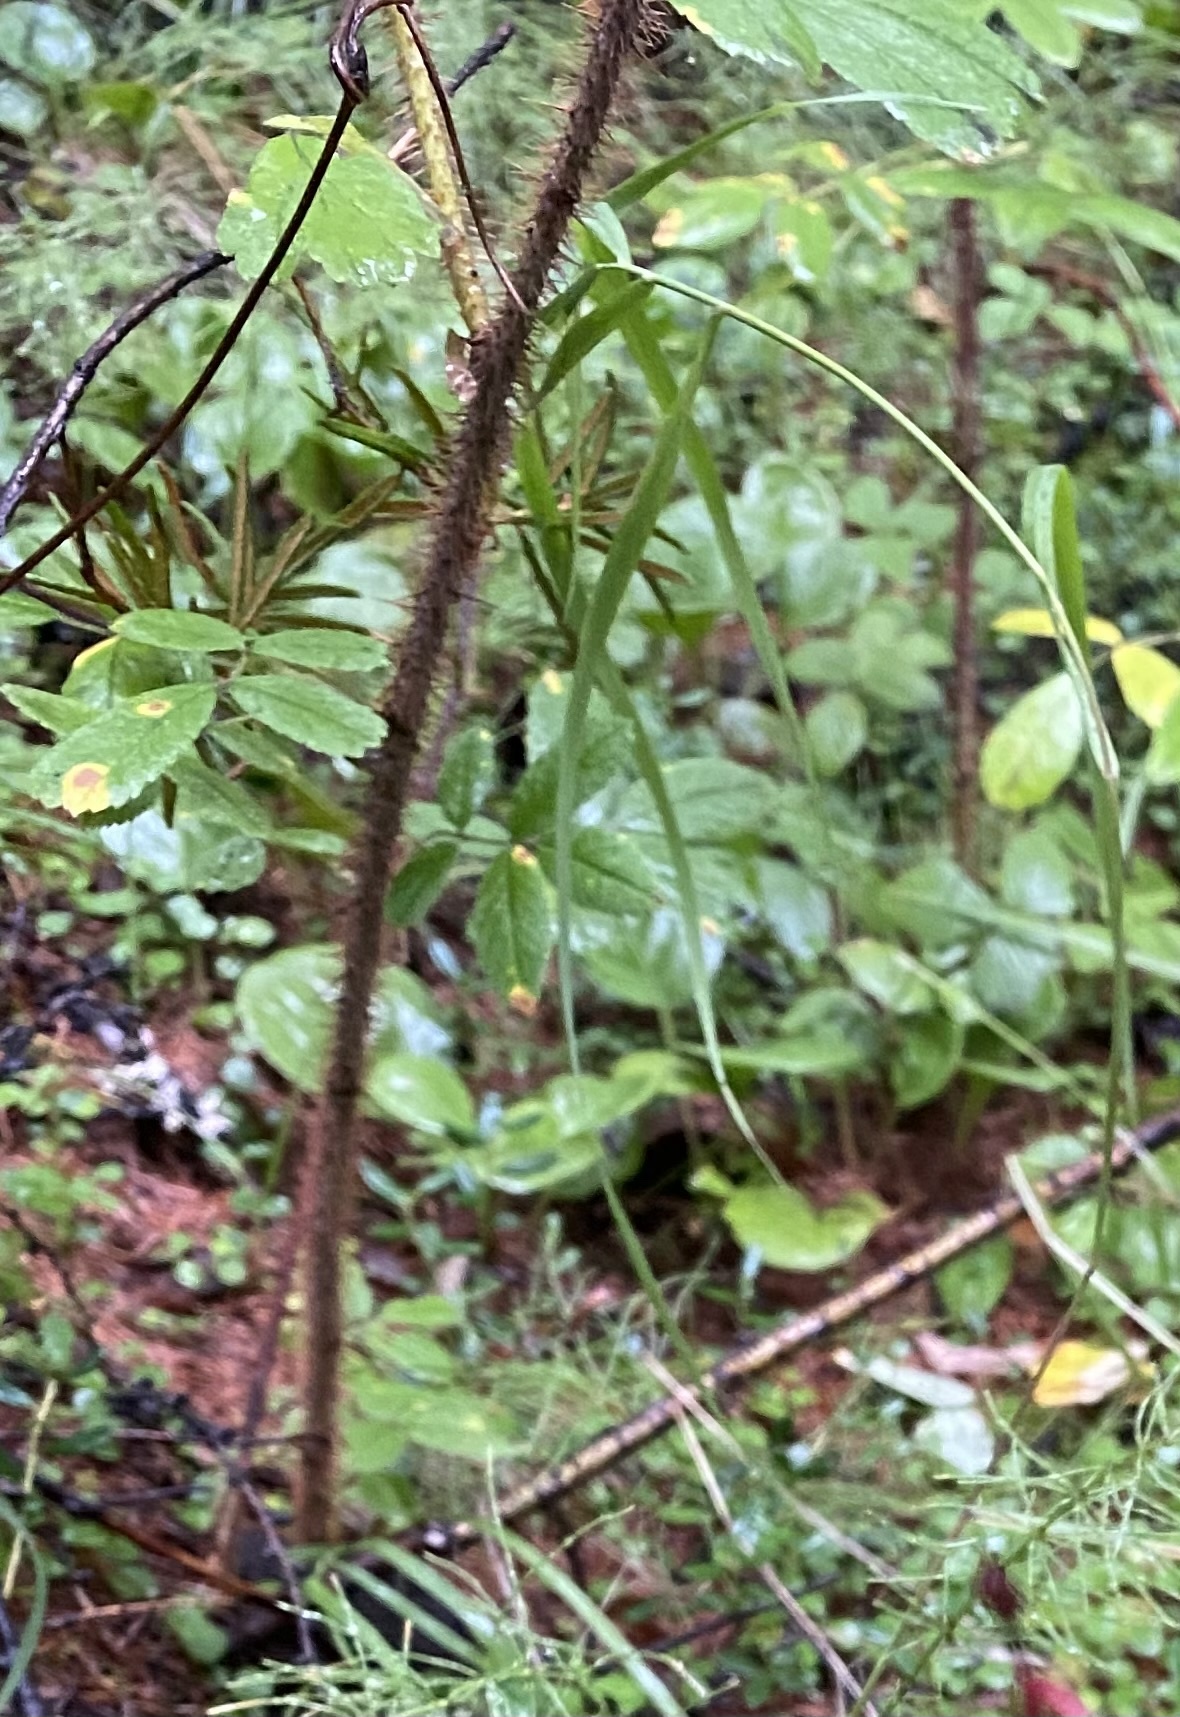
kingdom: Plantae
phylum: Tracheophyta
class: Magnoliopsida
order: Rosales
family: Rosaceae
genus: Rosa
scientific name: Rosa acicularis
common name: Prickly rose
